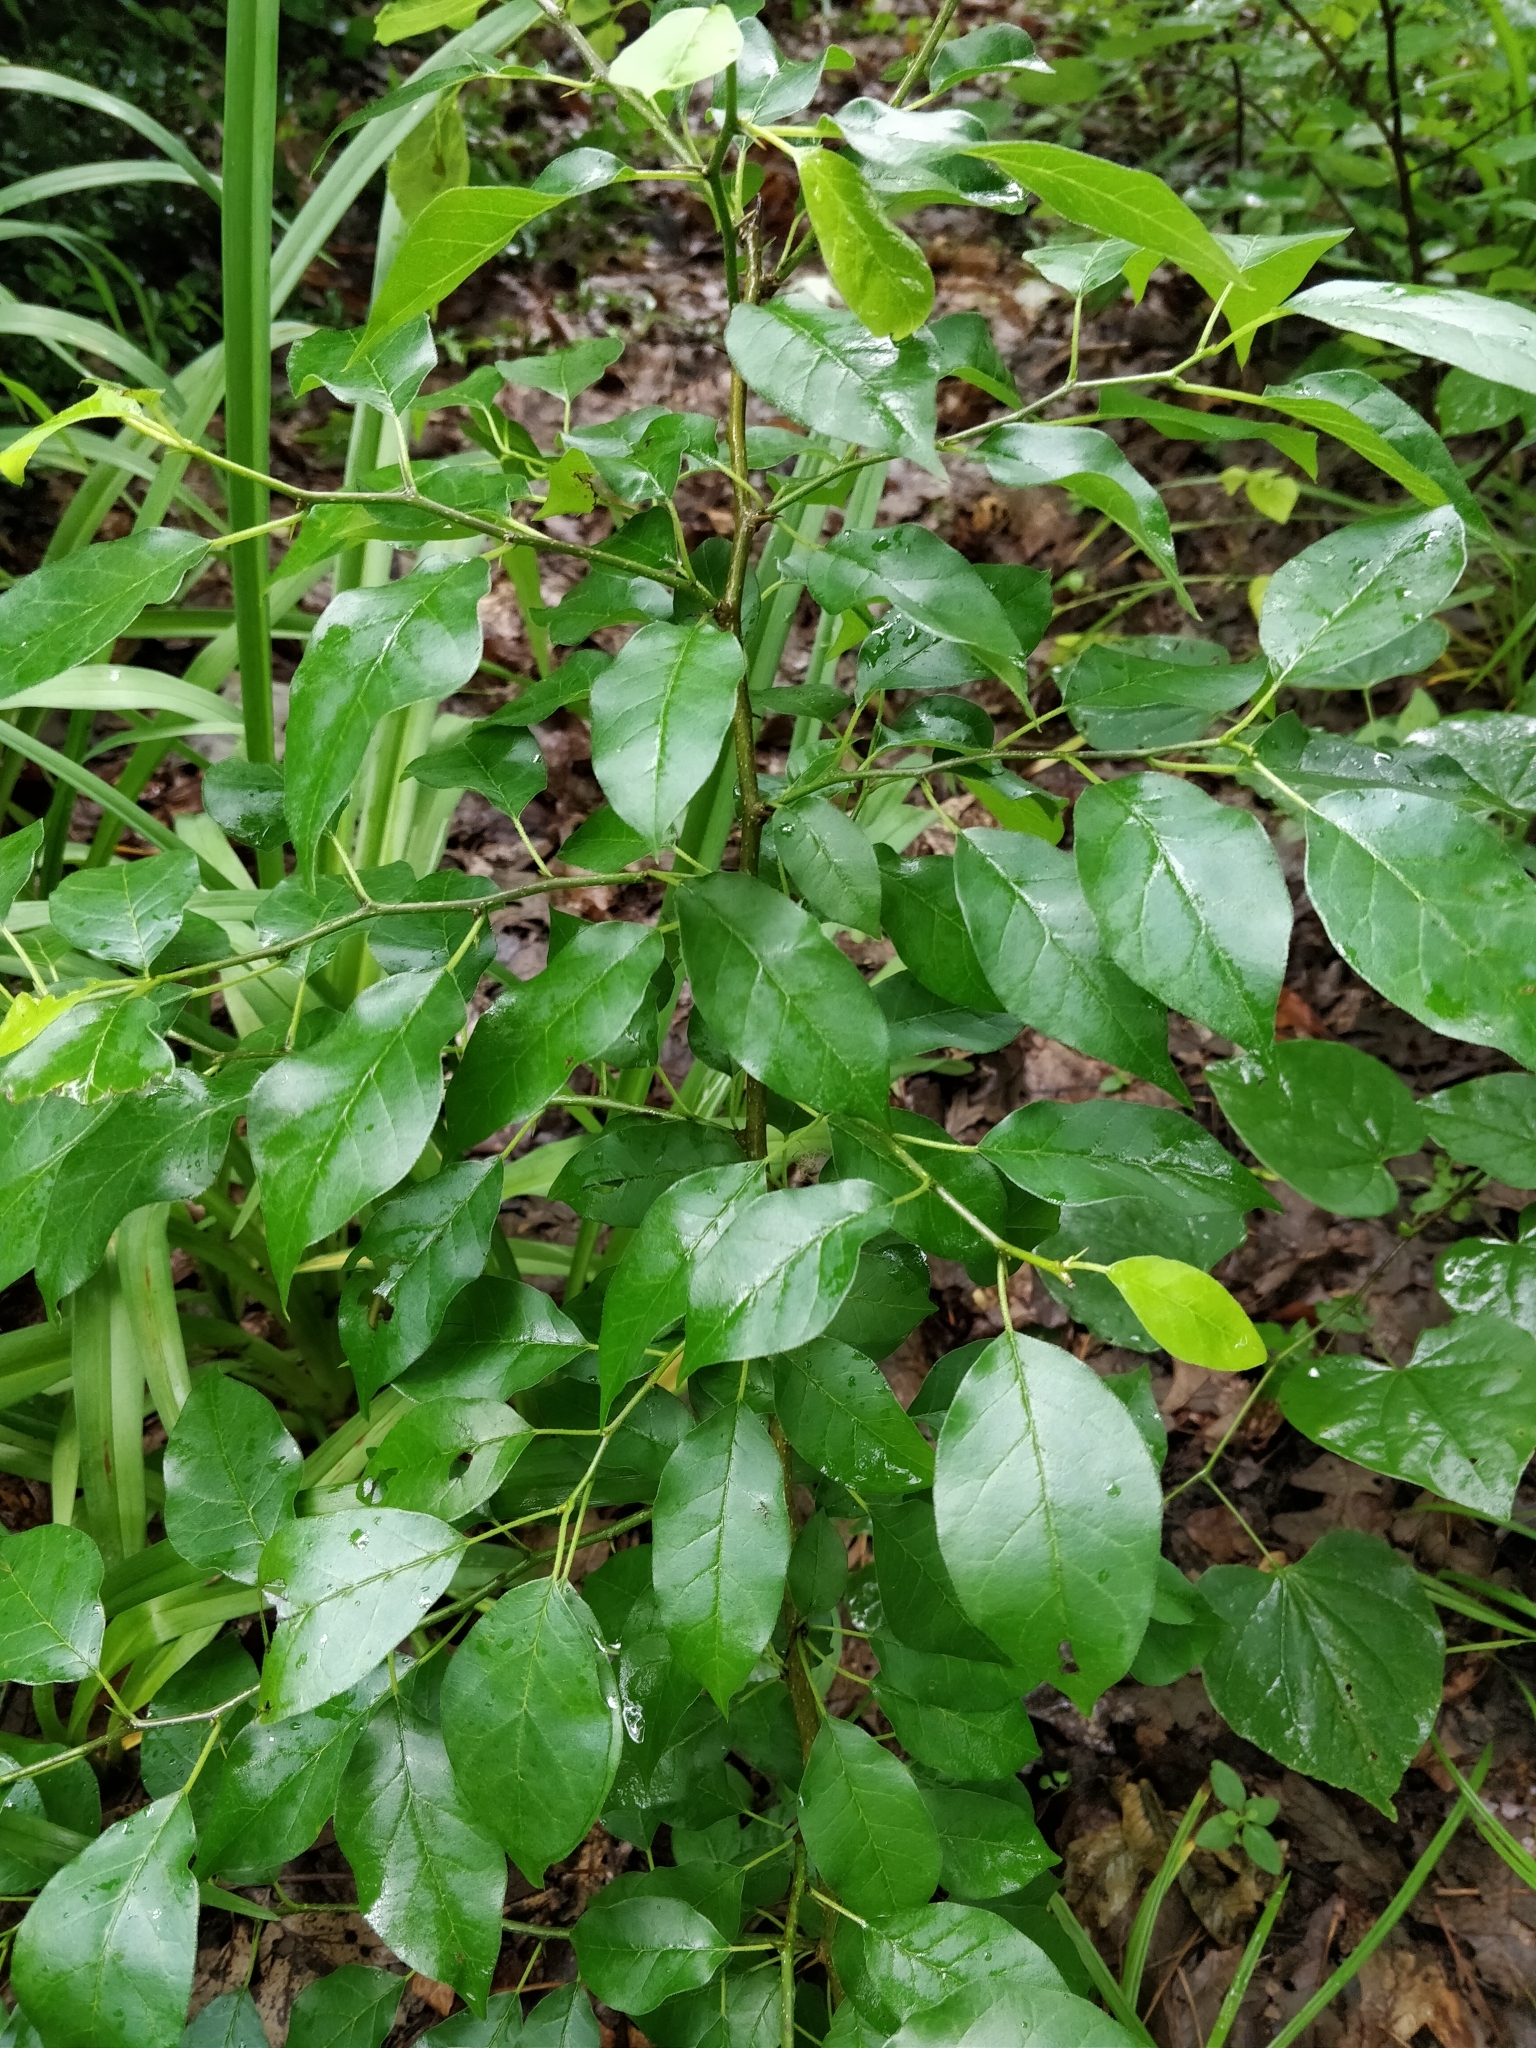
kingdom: Plantae
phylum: Tracheophyta
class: Magnoliopsida
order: Rosales
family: Moraceae
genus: Maclura
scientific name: Maclura pomifera
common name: Osage-orange
